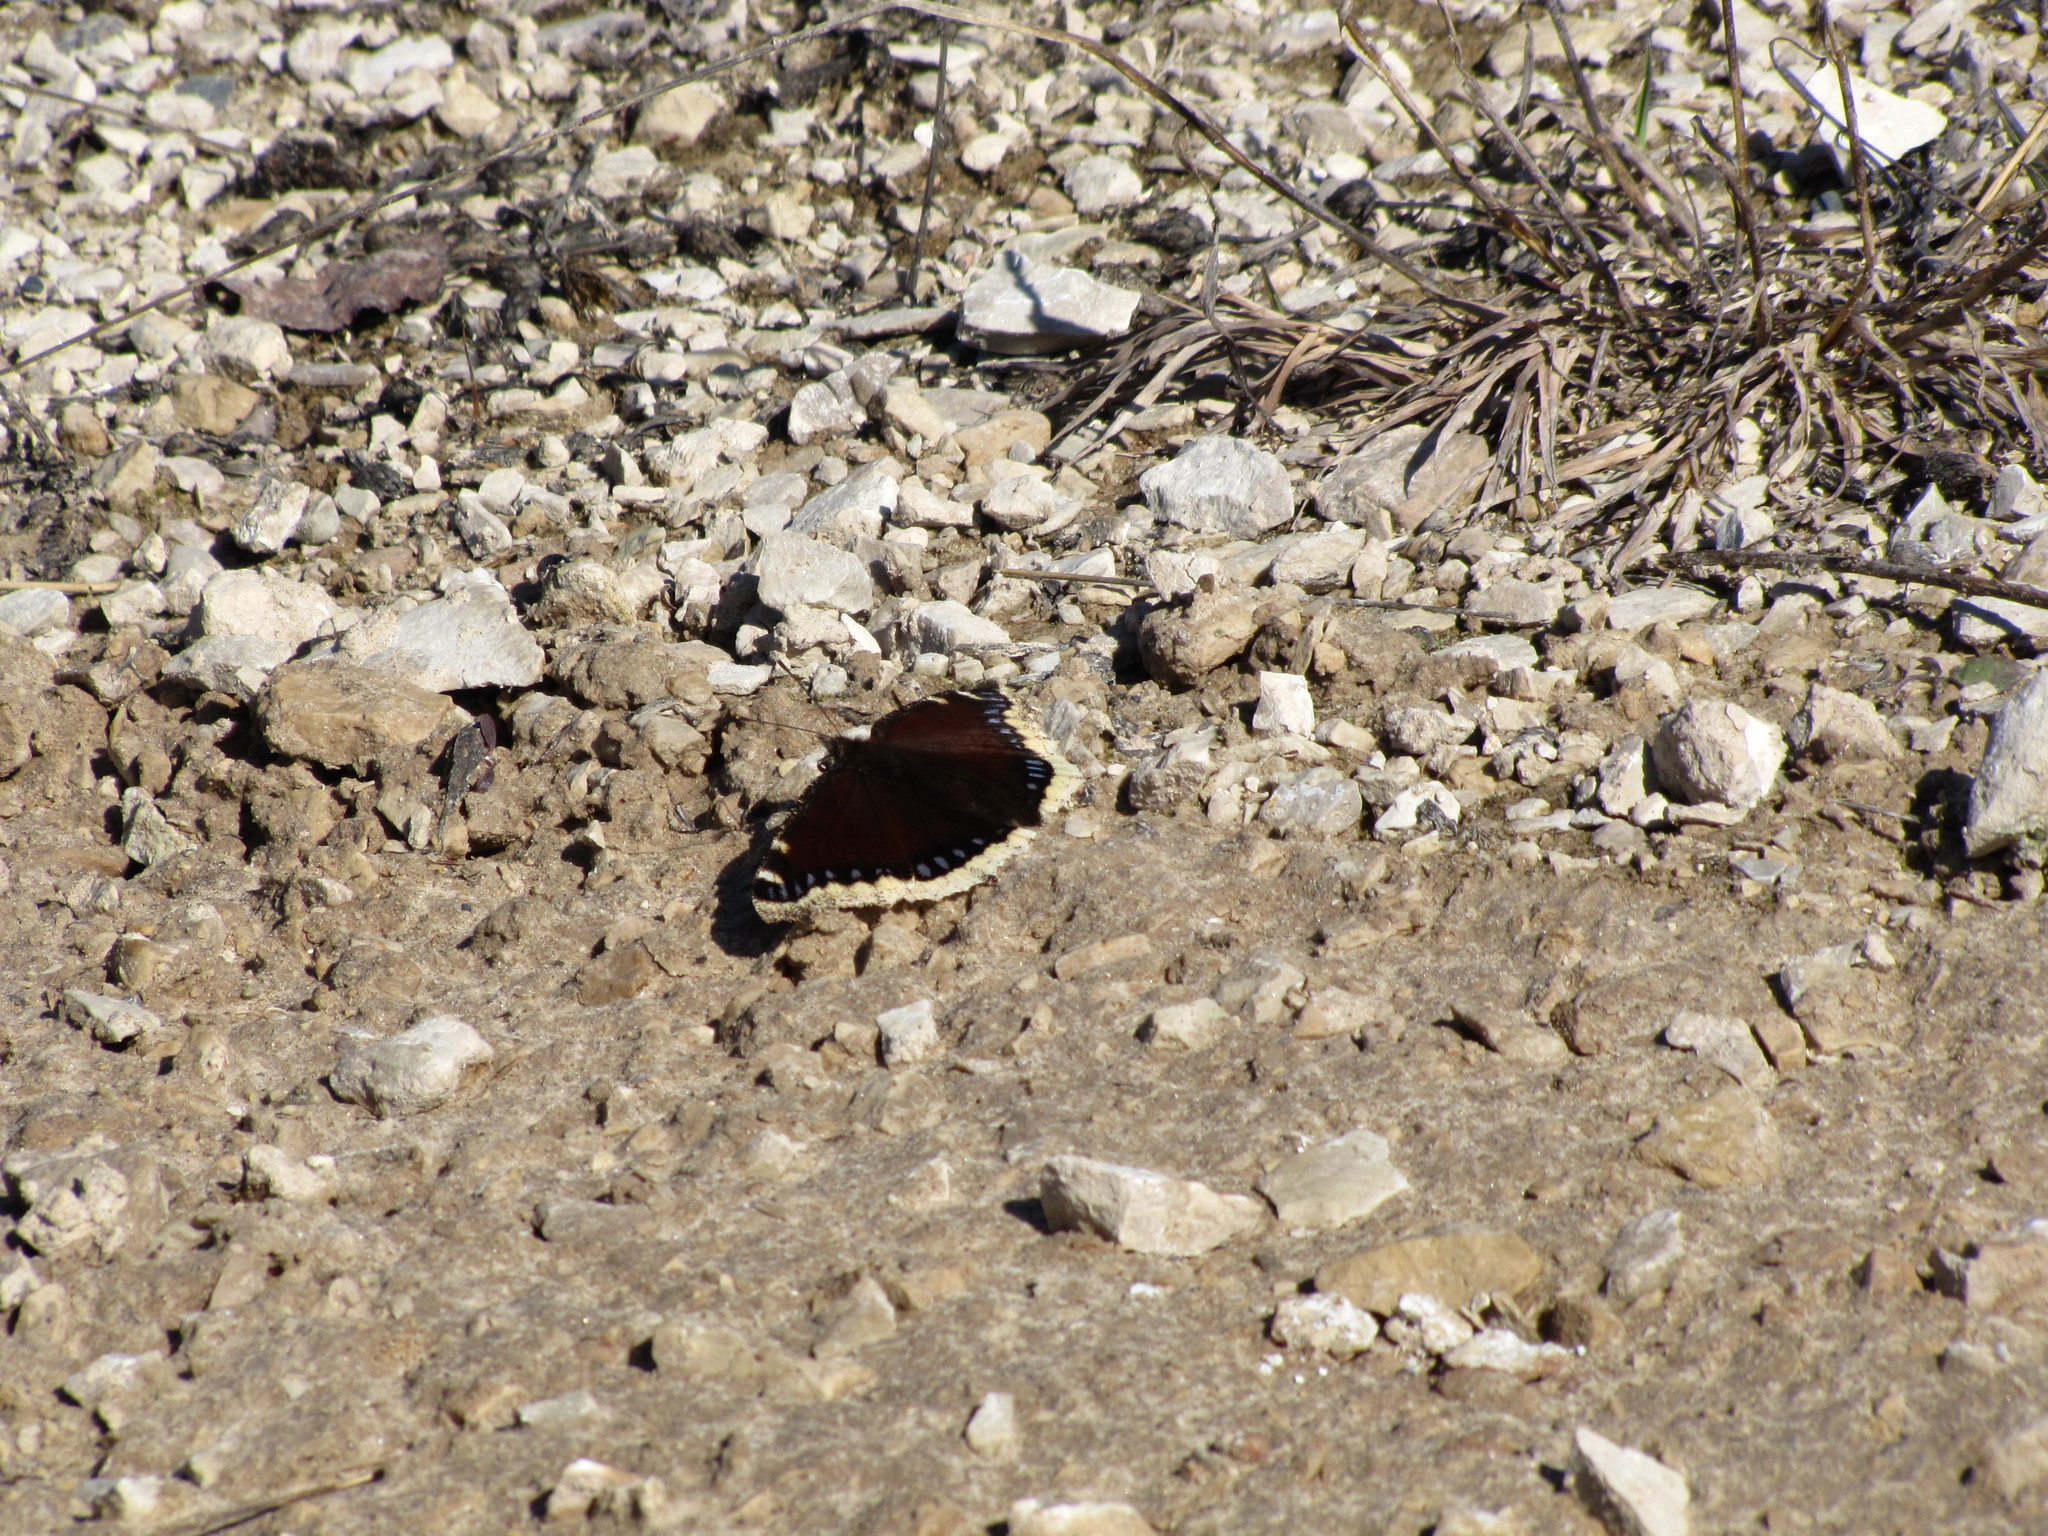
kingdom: Animalia
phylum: Arthropoda
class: Insecta
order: Lepidoptera
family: Nymphalidae
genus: Nymphalis
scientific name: Nymphalis antiopa
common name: Camberwell beauty
